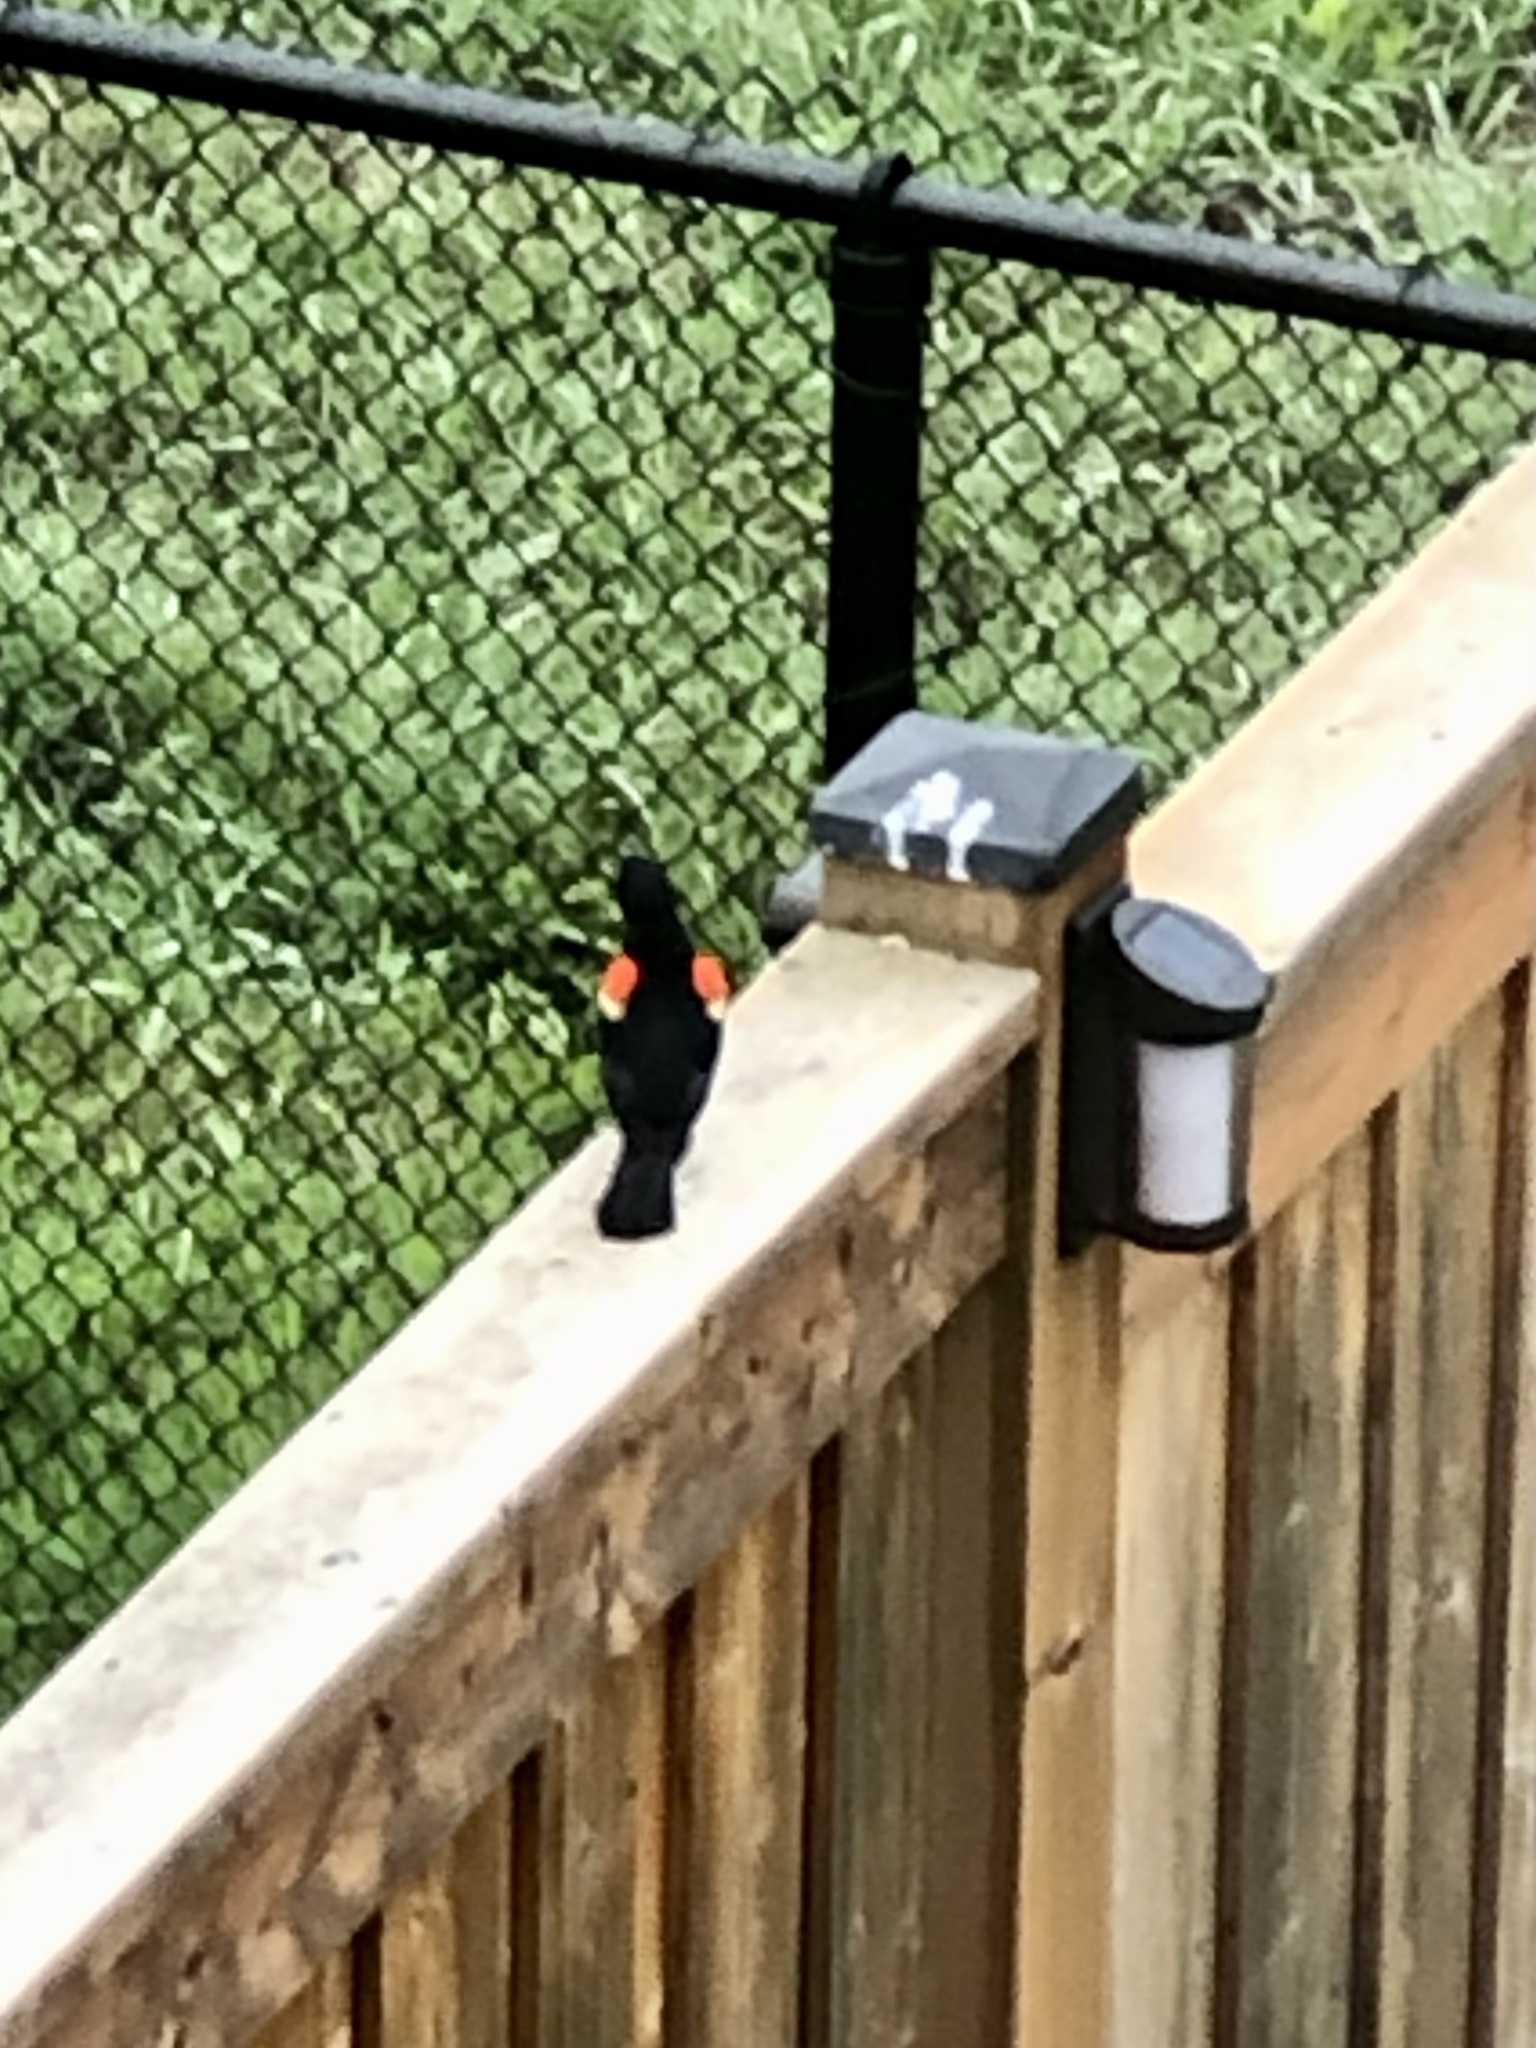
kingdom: Animalia
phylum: Chordata
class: Aves
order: Passeriformes
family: Icteridae
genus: Agelaius
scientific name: Agelaius phoeniceus
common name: Red-winged blackbird
